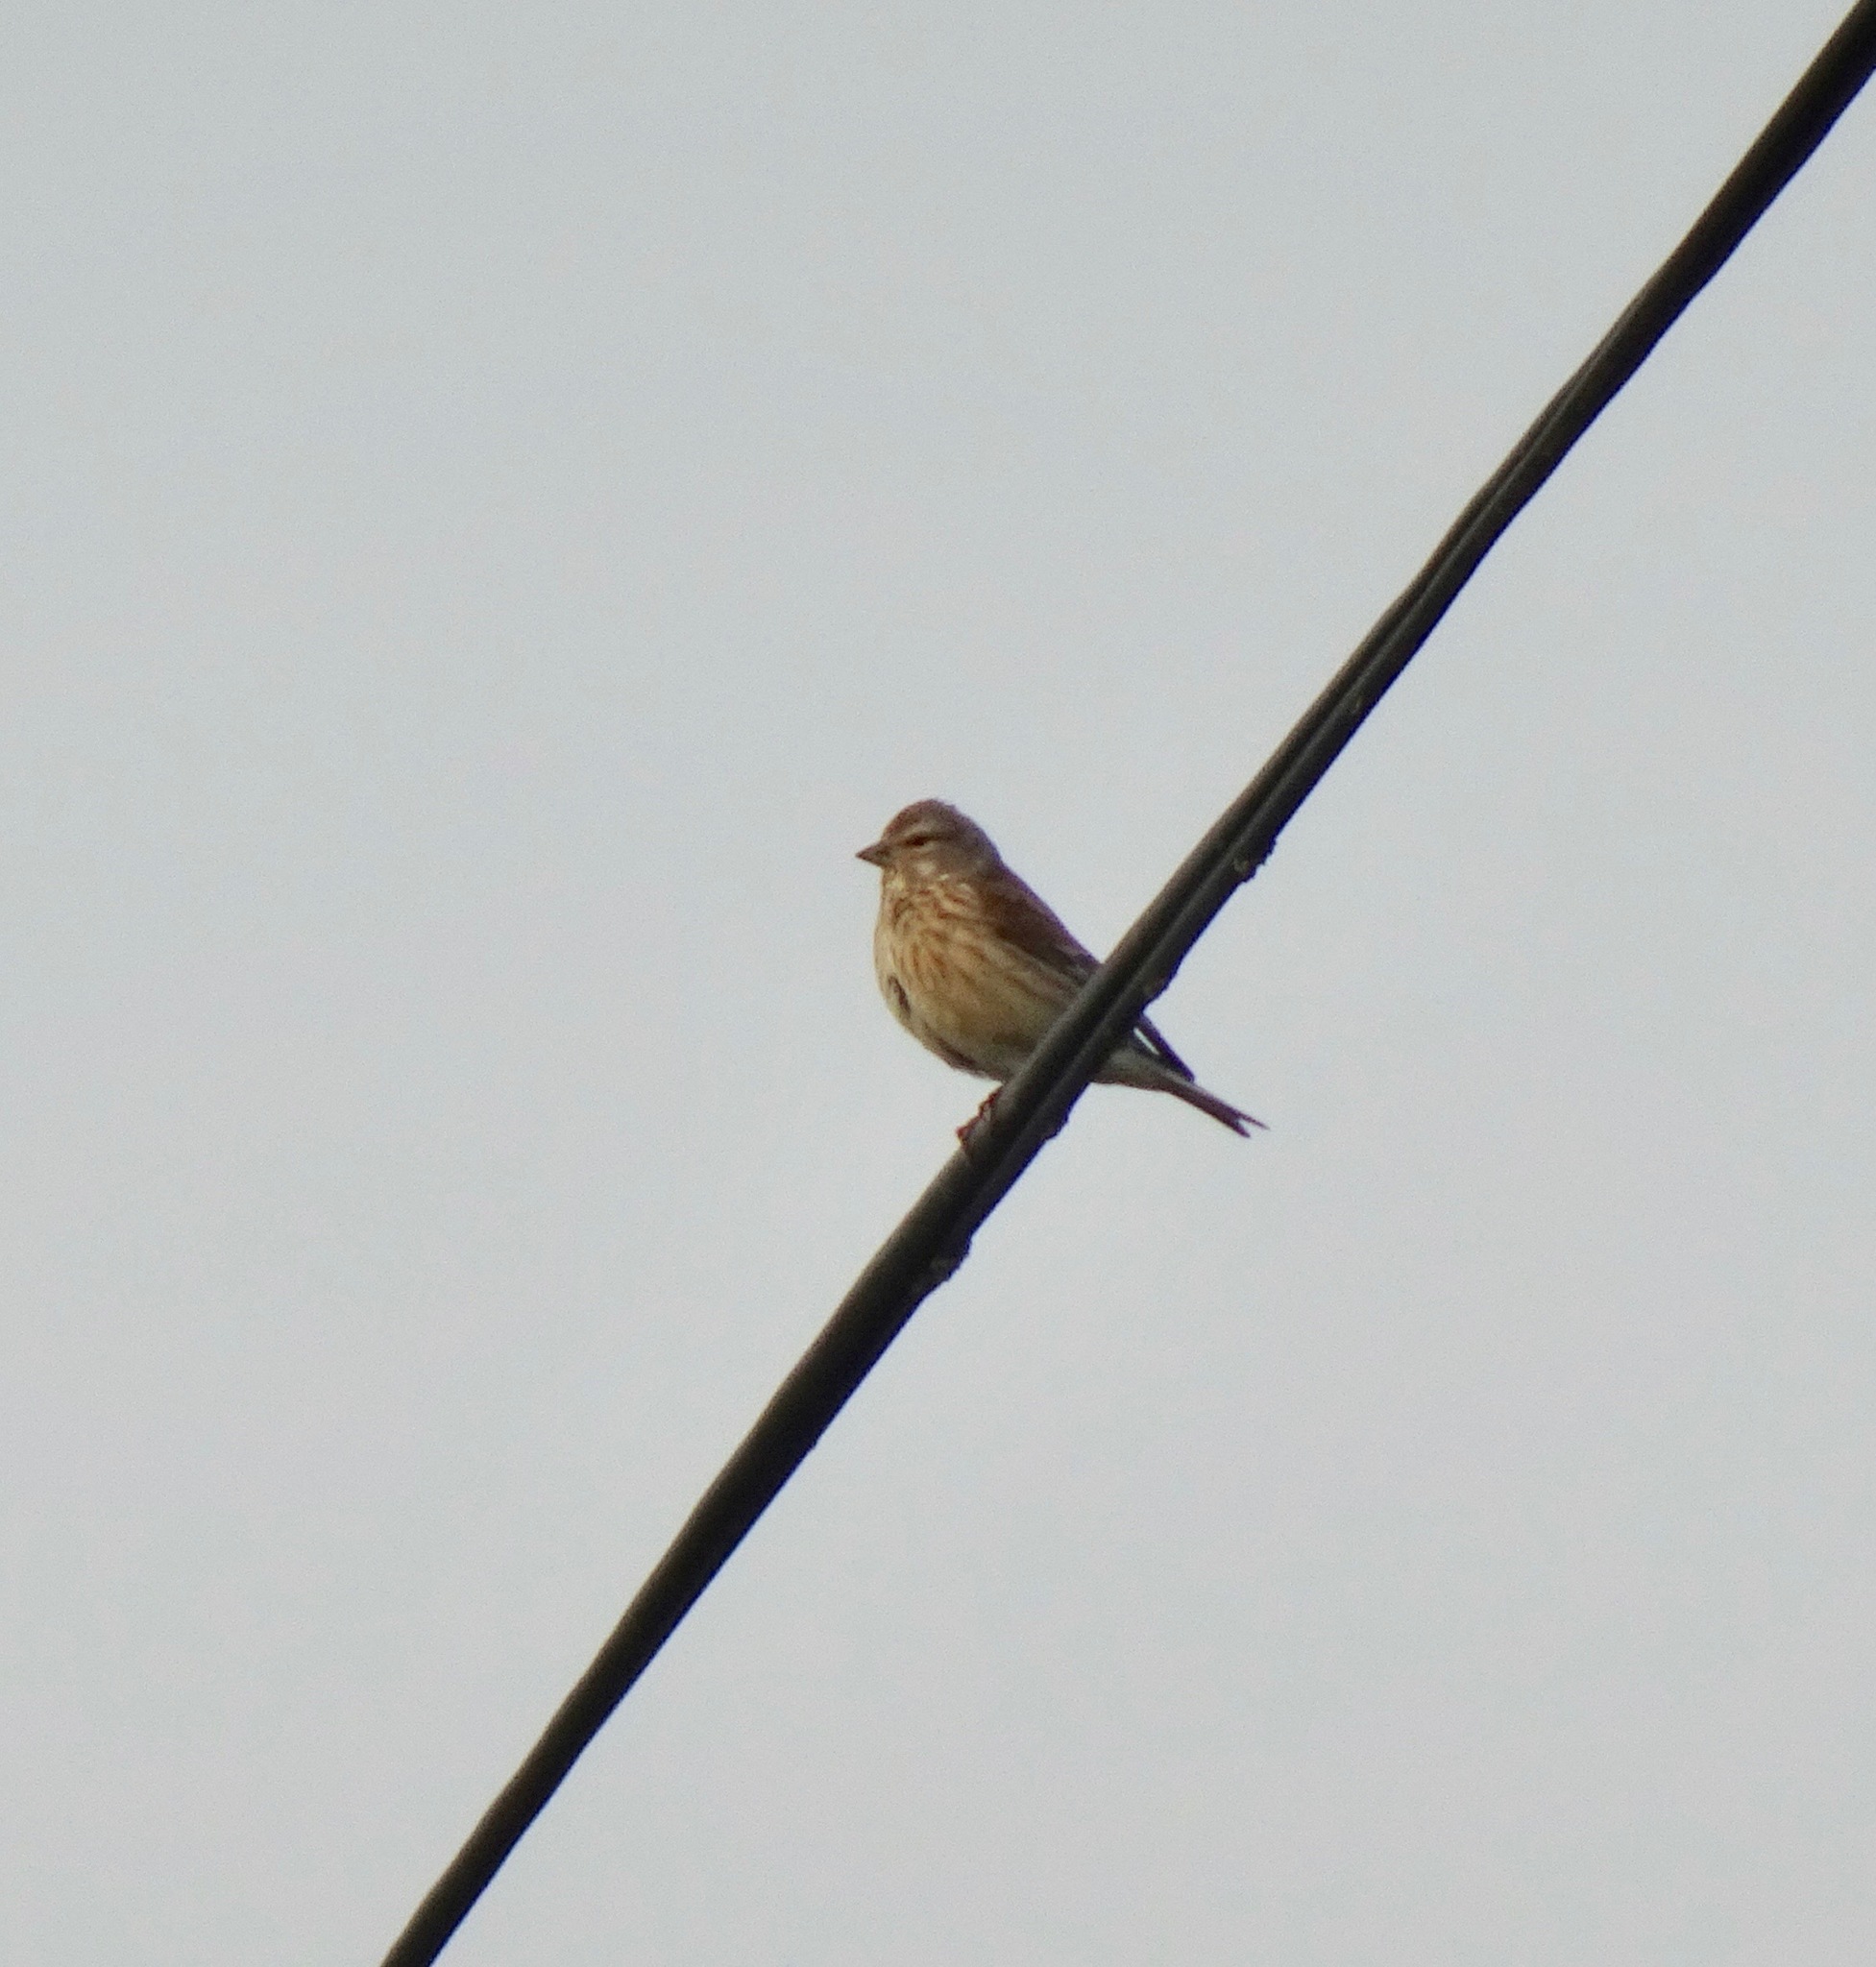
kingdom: Animalia
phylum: Chordata
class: Aves
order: Passeriformes
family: Fringillidae
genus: Linaria
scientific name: Linaria cannabina
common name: Common linnet
